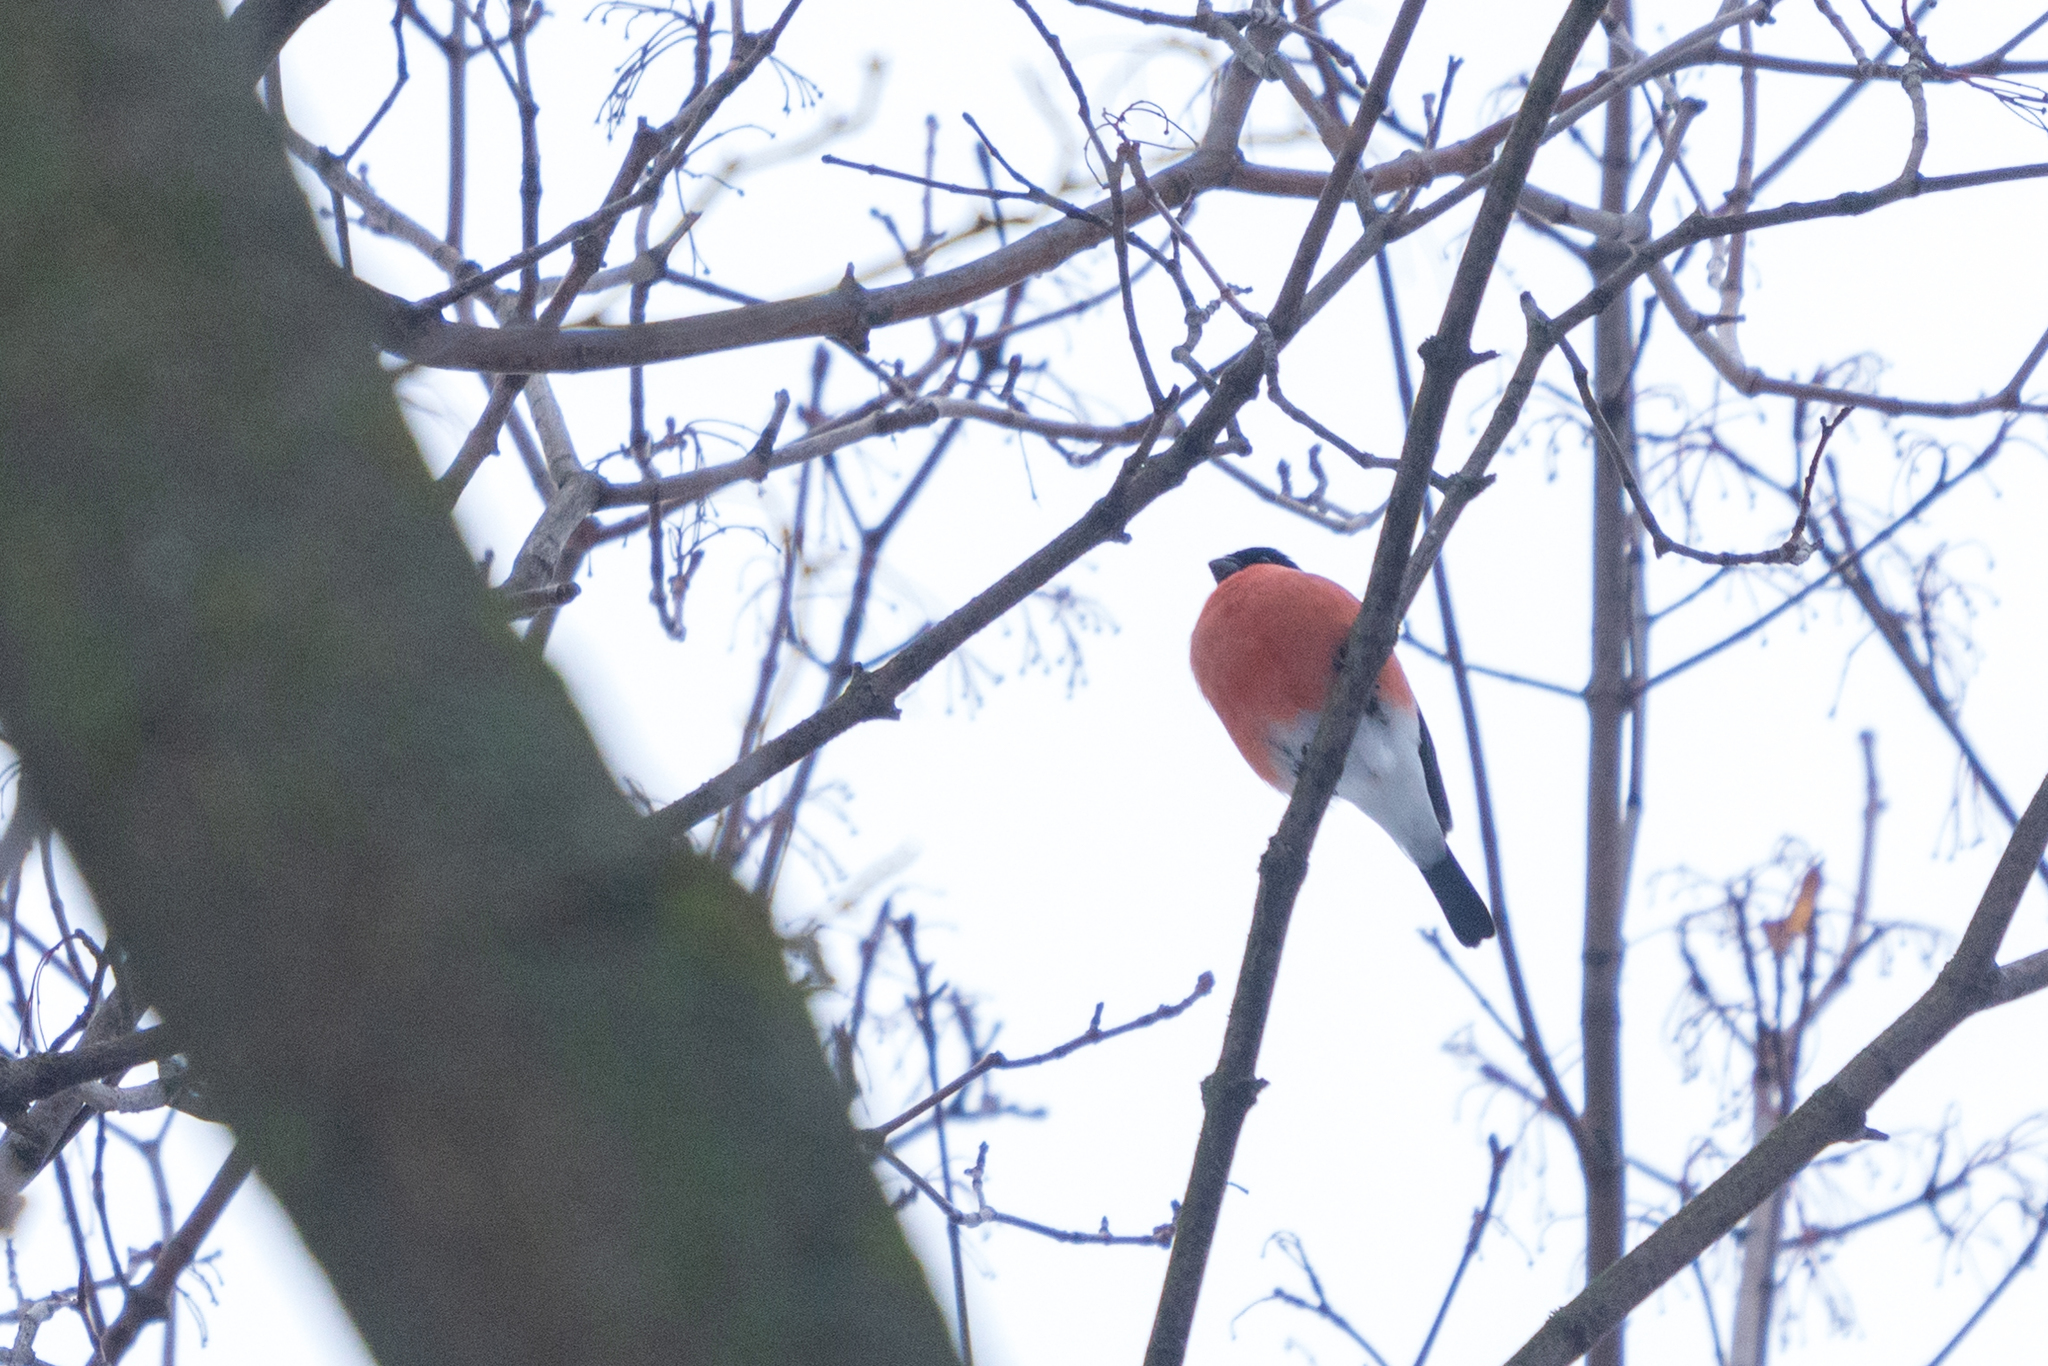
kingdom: Animalia
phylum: Chordata
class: Aves
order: Passeriformes
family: Fringillidae
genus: Pyrrhula
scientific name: Pyrrhula pyrrhula
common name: Eurasian bullfinch
